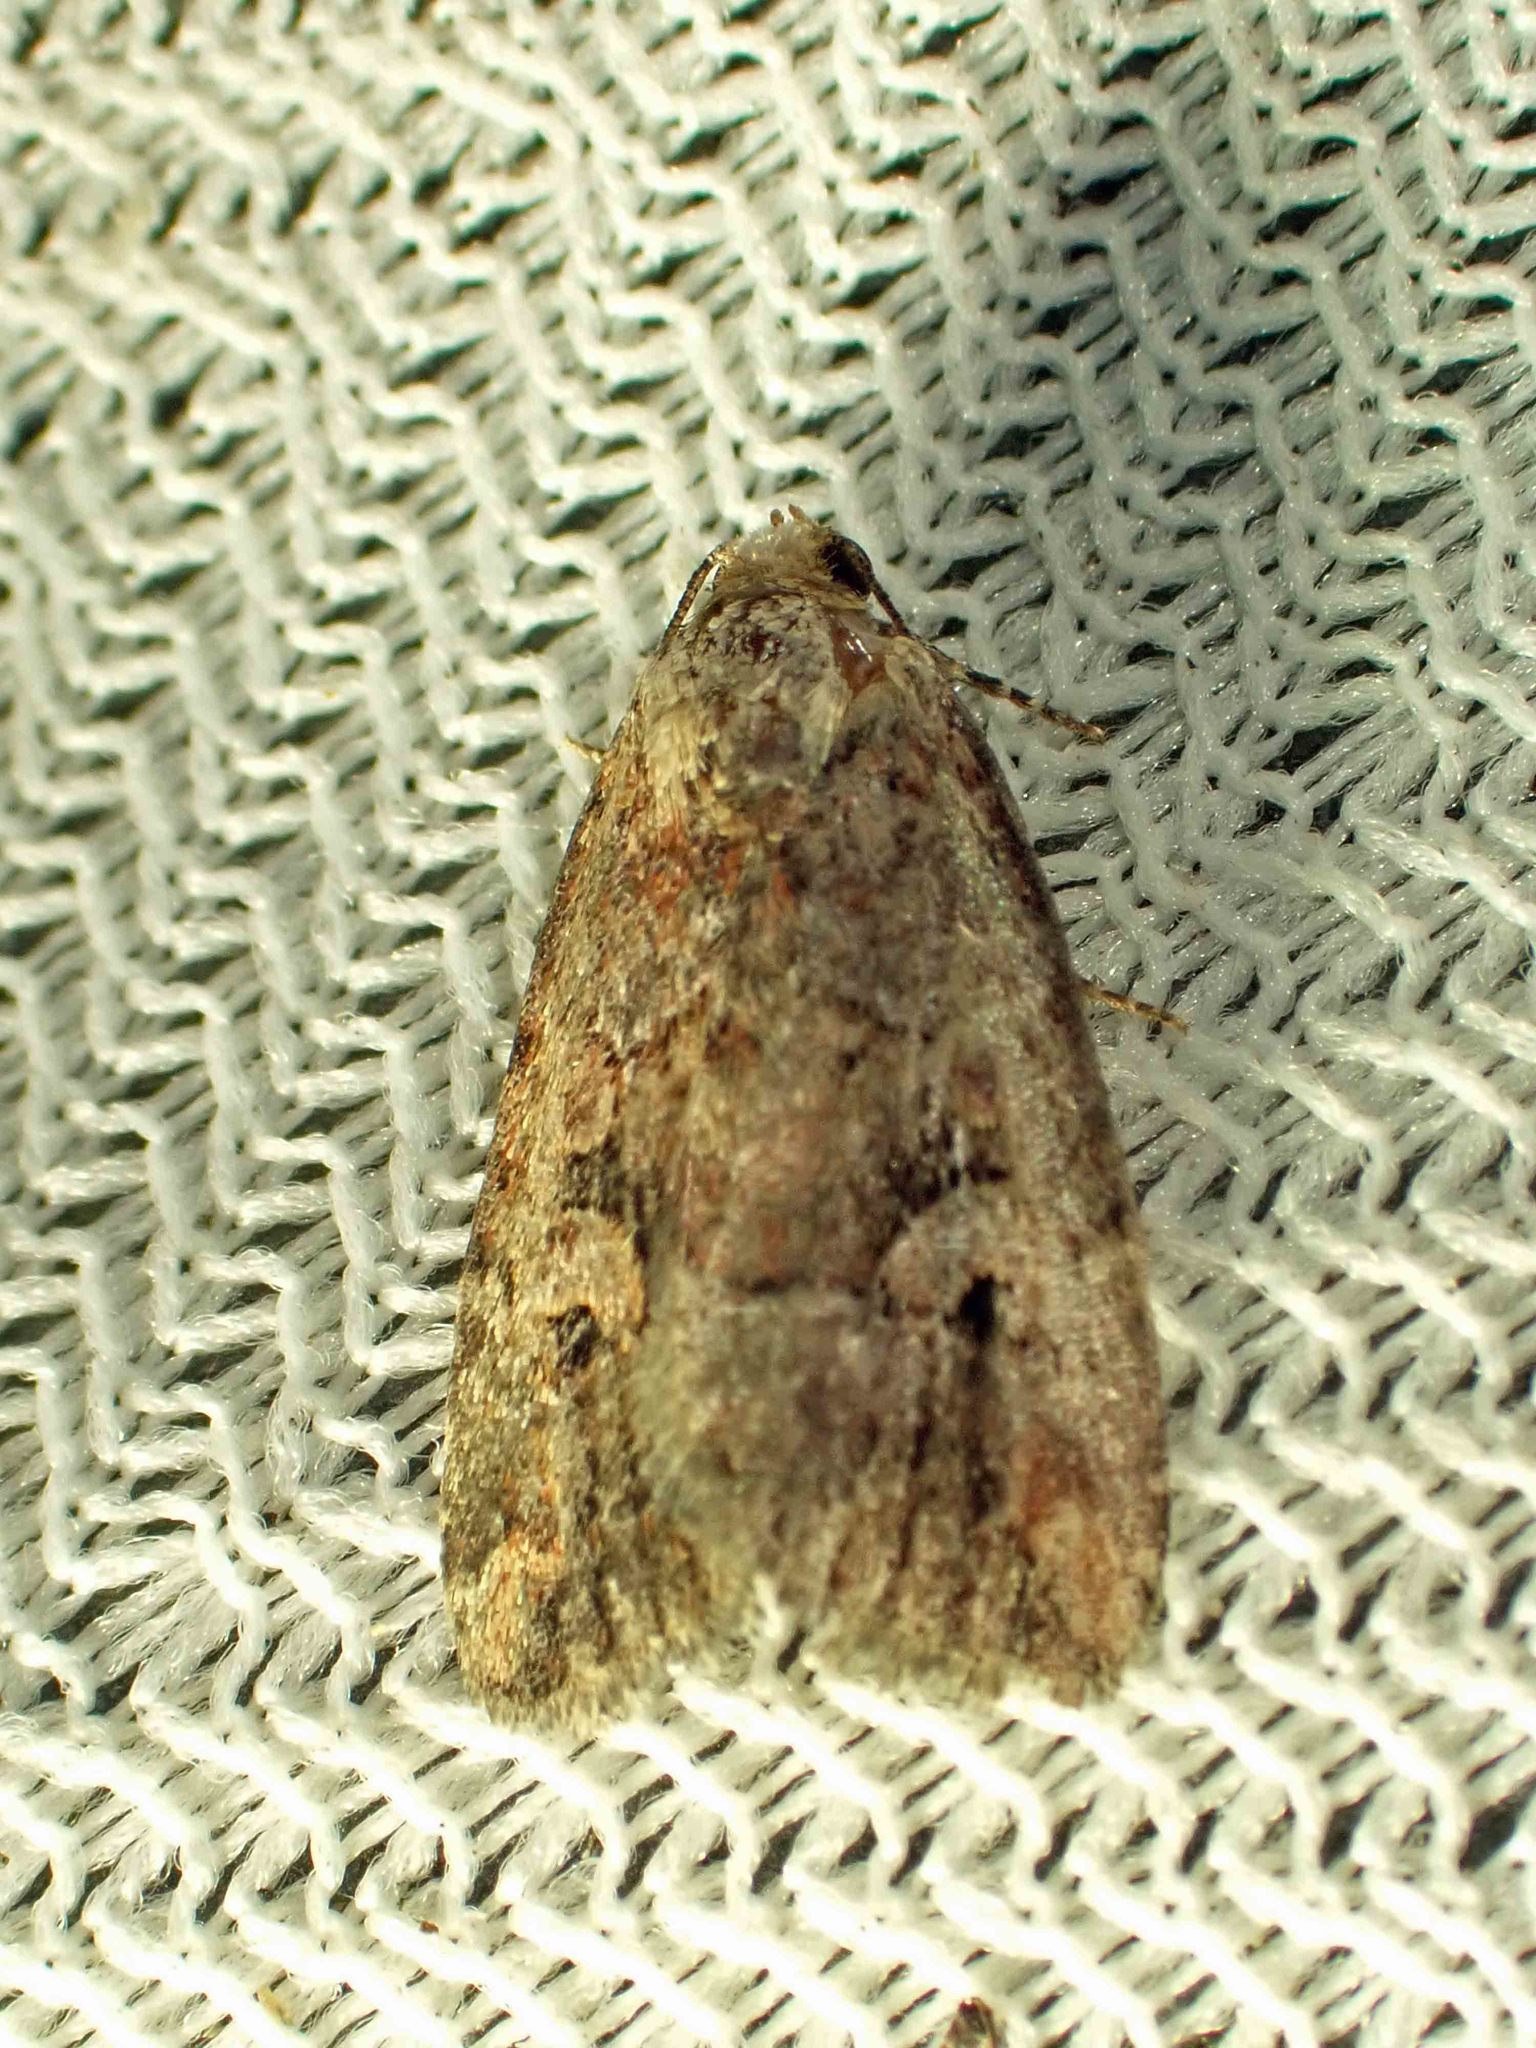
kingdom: Animalia
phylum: Arthropoda
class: Insecta
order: Lepidoptera
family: Noctuidae
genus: Elaphria
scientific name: Elaphria alapallida
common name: Pale-winged midget
